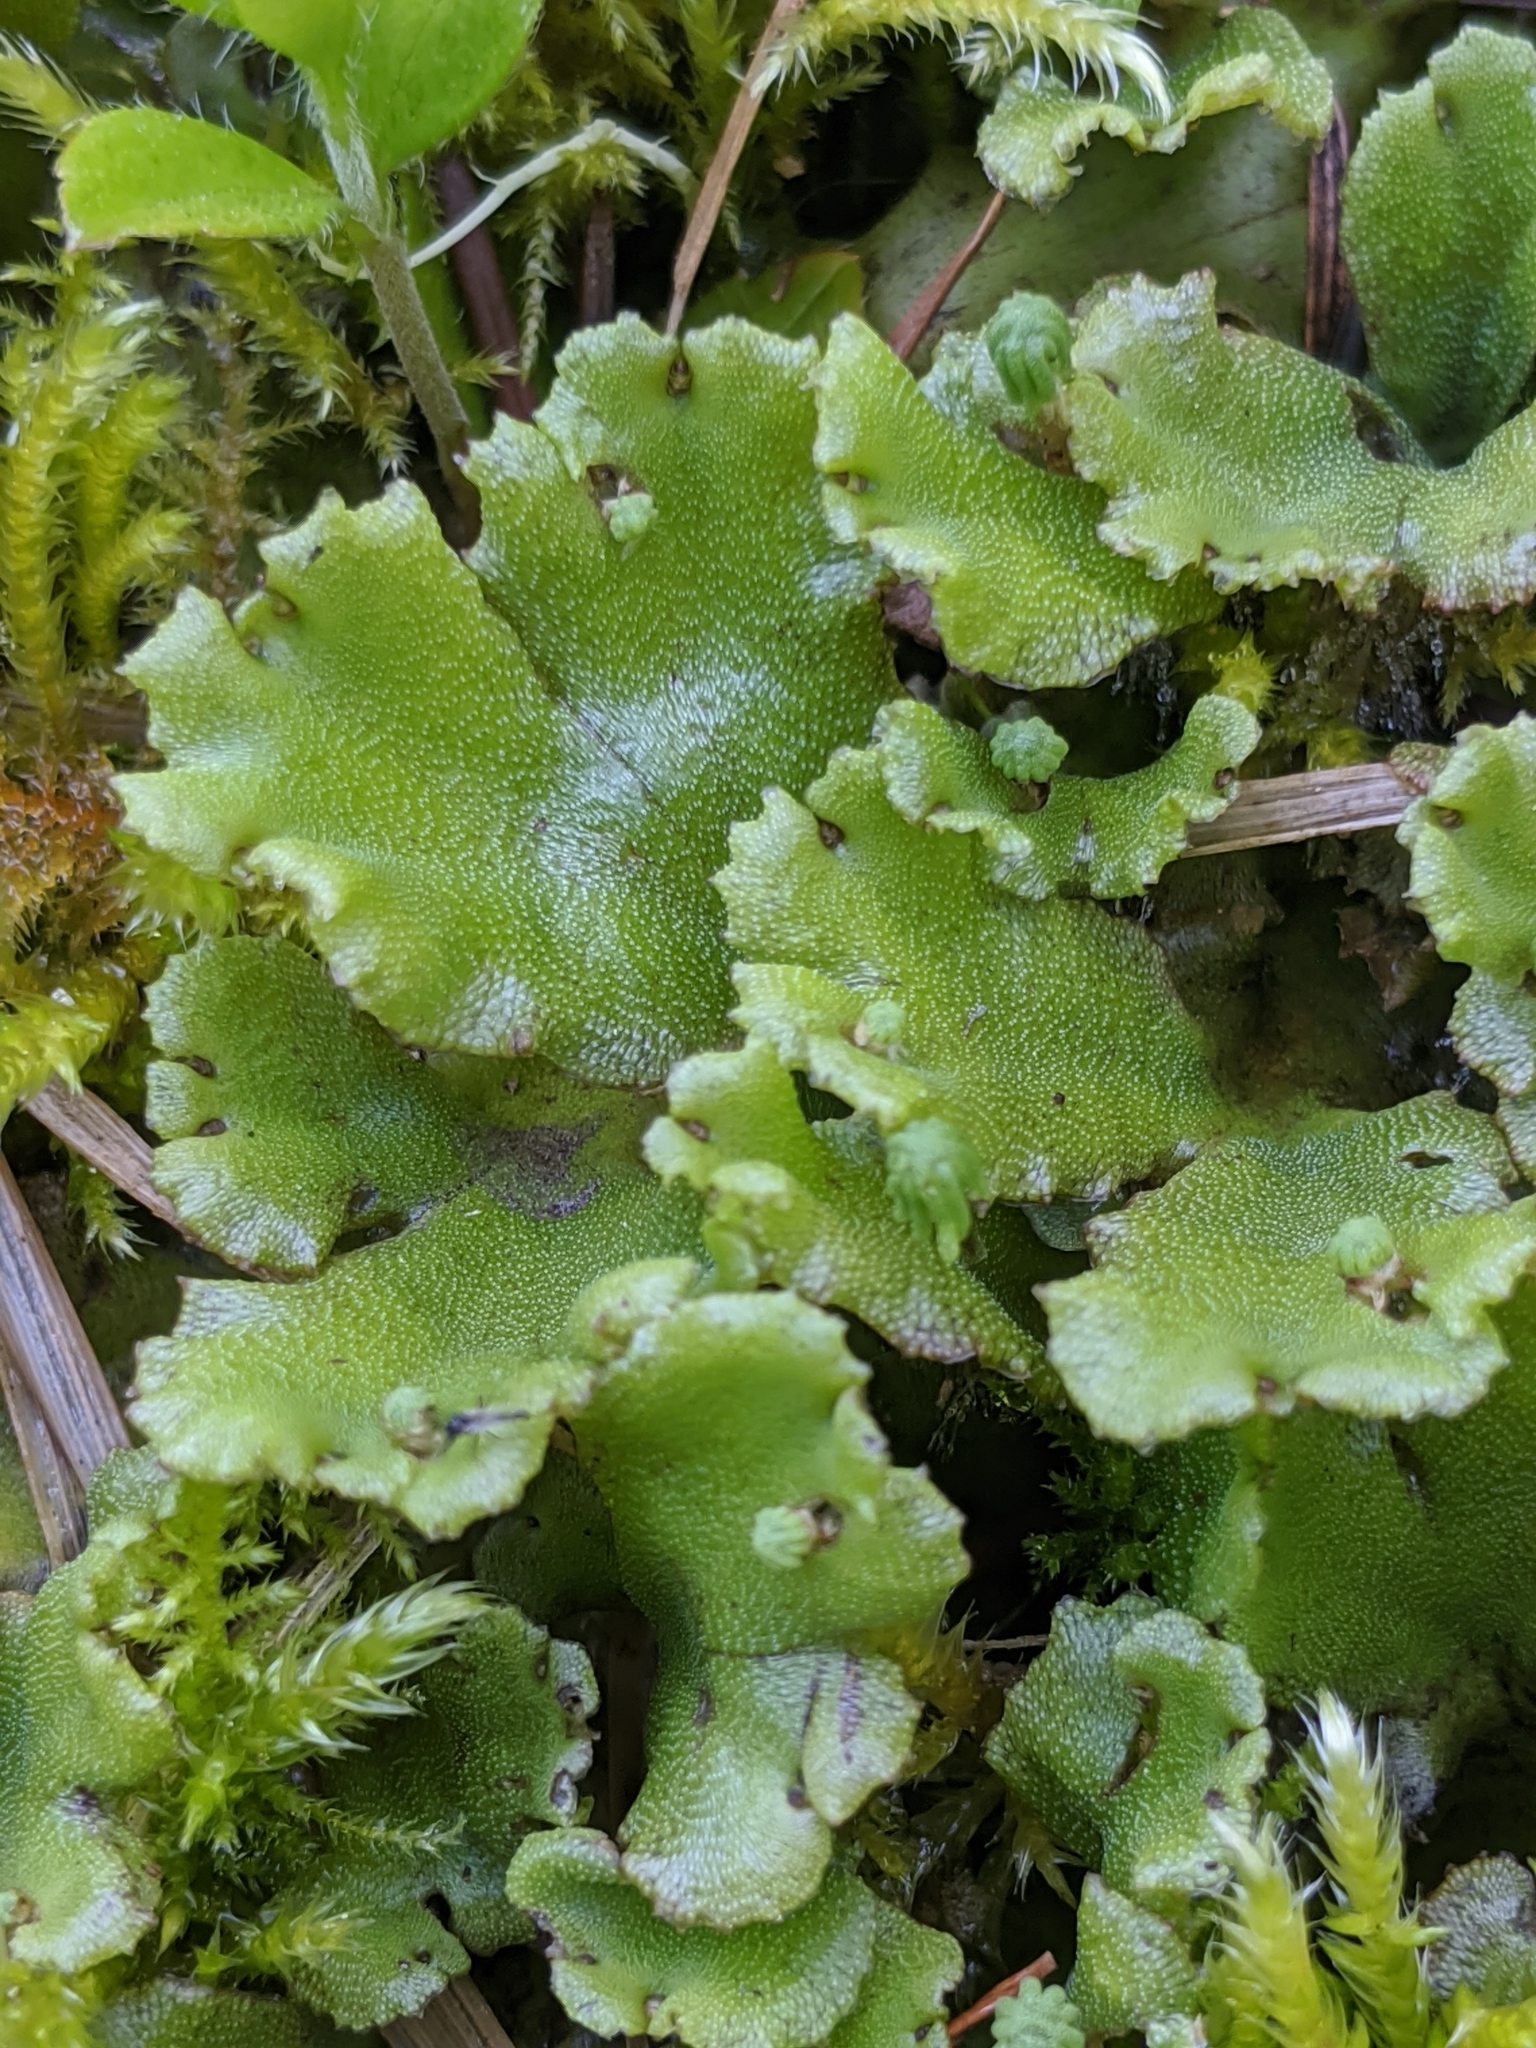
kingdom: Plantae
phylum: Marchantiophyta
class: Marchantiopsida
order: Marchantiales
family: Marchantiaceae
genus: Marchantia
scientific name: Marchantia polymorpha
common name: Common liverwort
